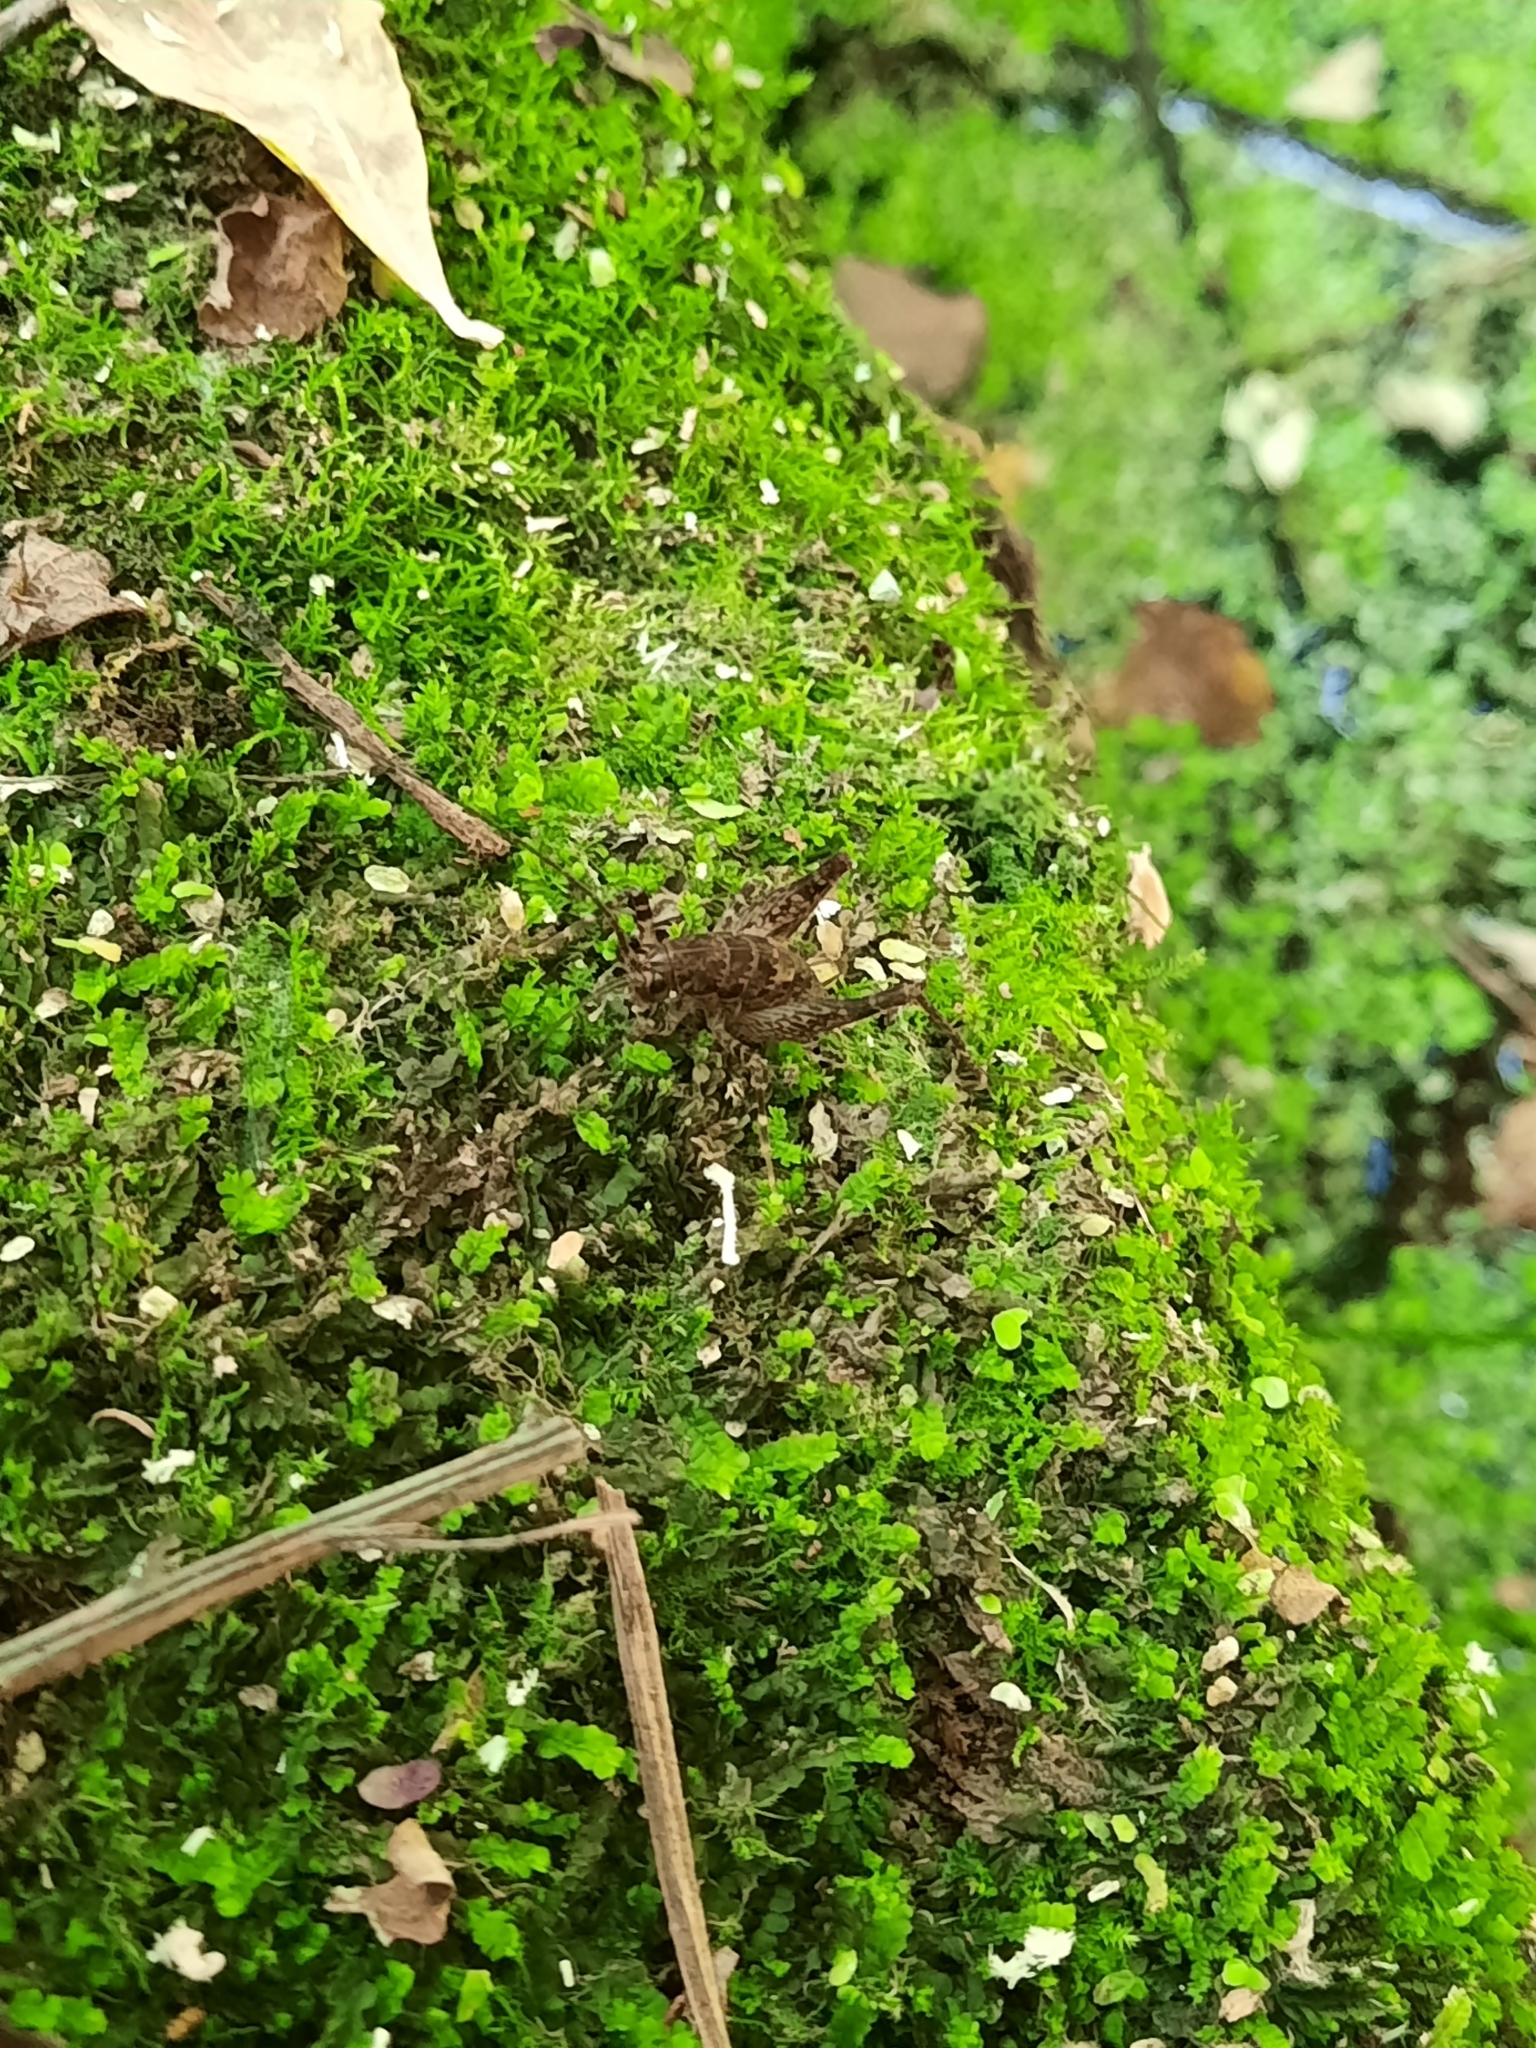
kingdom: Animalia
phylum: Arthropoda
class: Insecta
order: Orthoptera
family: Rhaphidophoridae
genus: Pleioplectron
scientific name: Pleioplectron simplex
